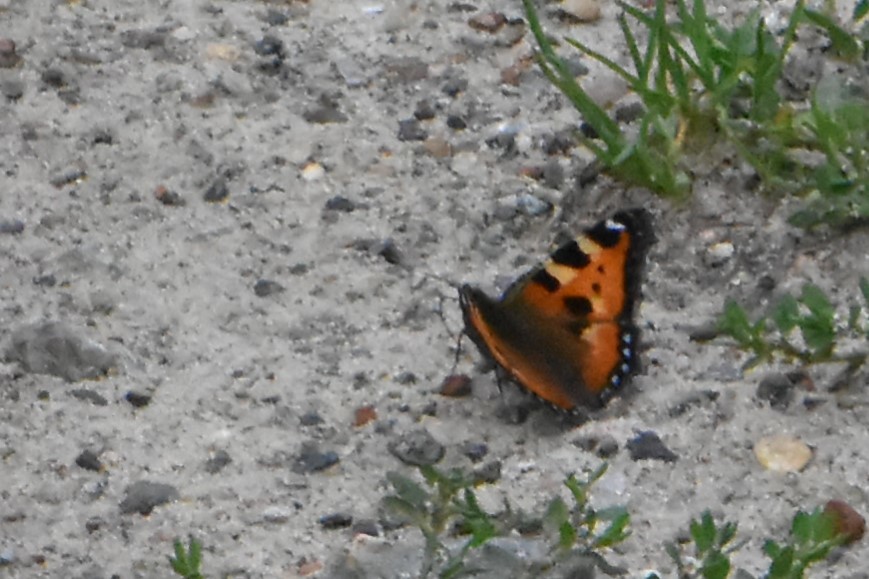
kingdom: Animalia
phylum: Arthropoda
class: Insecta
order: Lepidoptera
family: Nymphalidae
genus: Aglais
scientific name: Aglais urticae
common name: Small tortoiseshell
